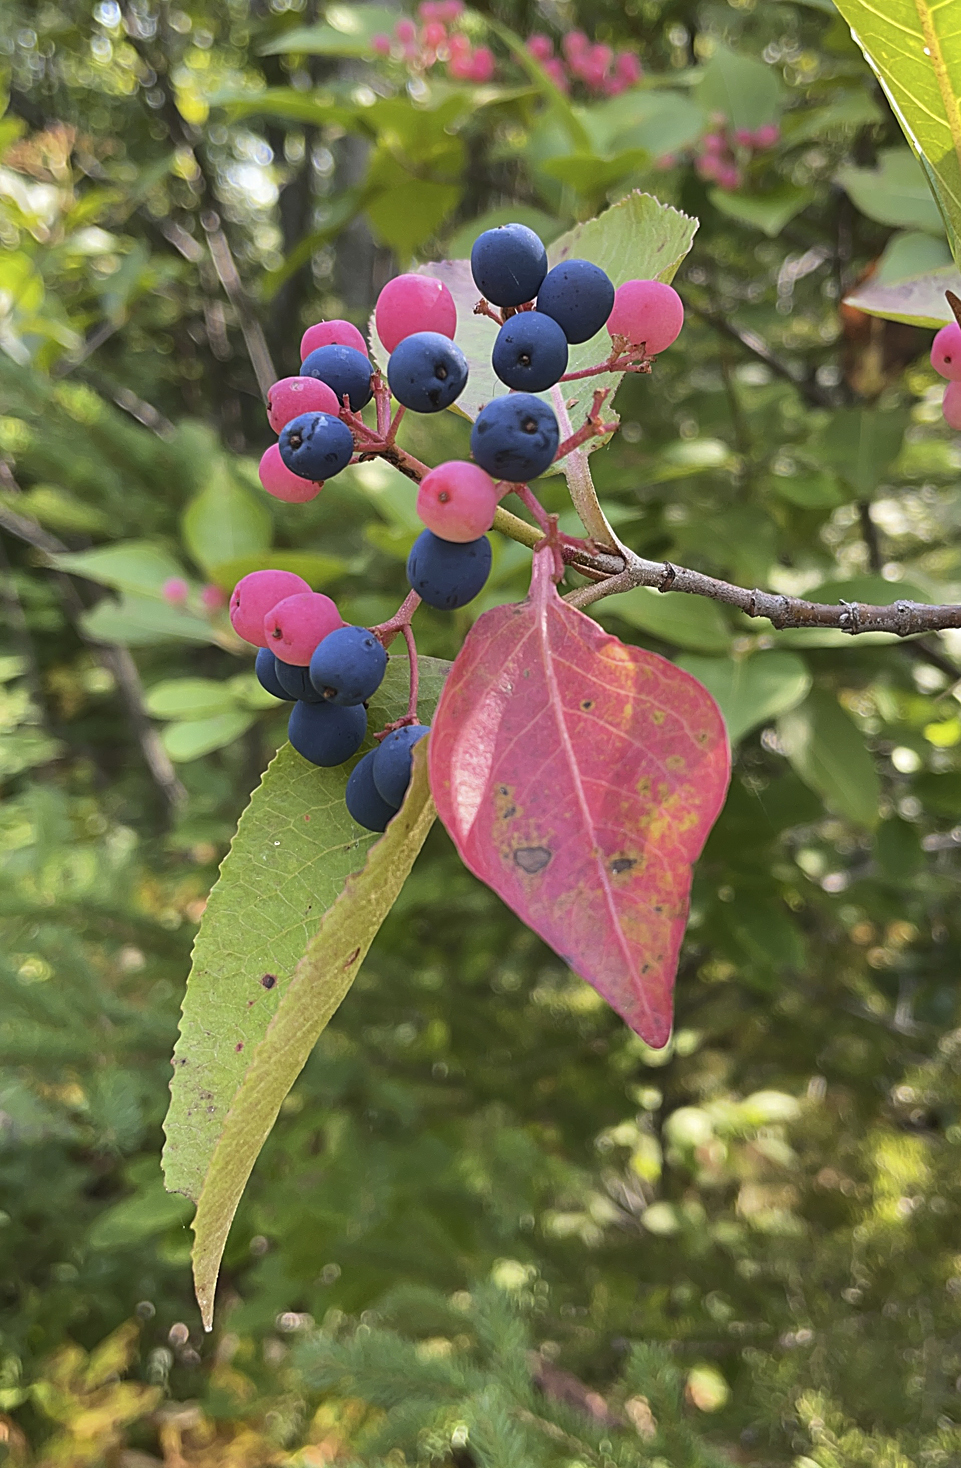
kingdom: Plantae
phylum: Tracheophyta
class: Magnoliopsida
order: Dipsacales
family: Viburnaceae
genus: Viburnum
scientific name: Viburnum cassinoides
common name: Swamp haw
